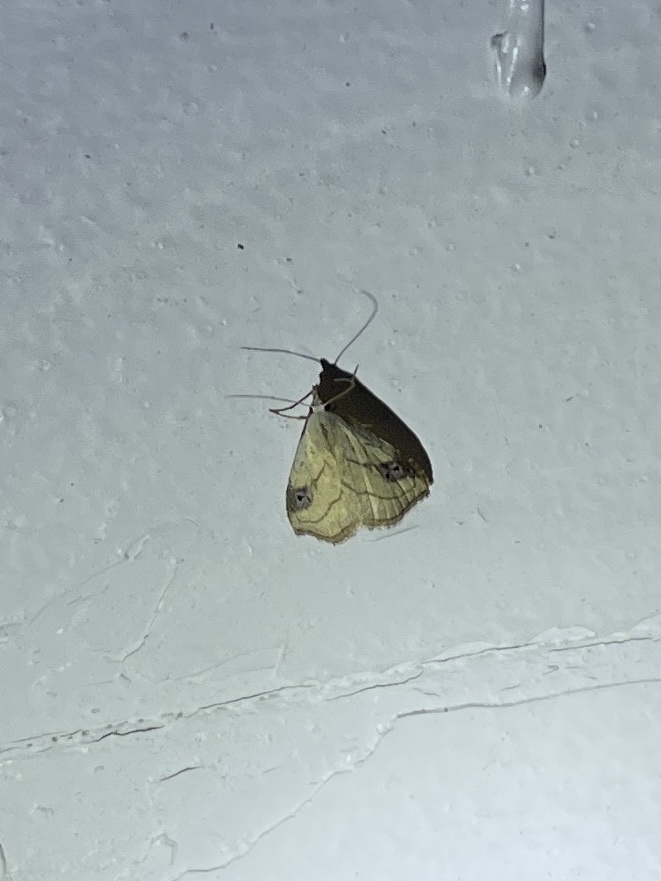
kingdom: Animalia
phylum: Arthropoda
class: Insecta
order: Lepidoptera
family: Erebidae
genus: Rivula
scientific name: Rivula propinqualis
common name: Spotted grass moth
